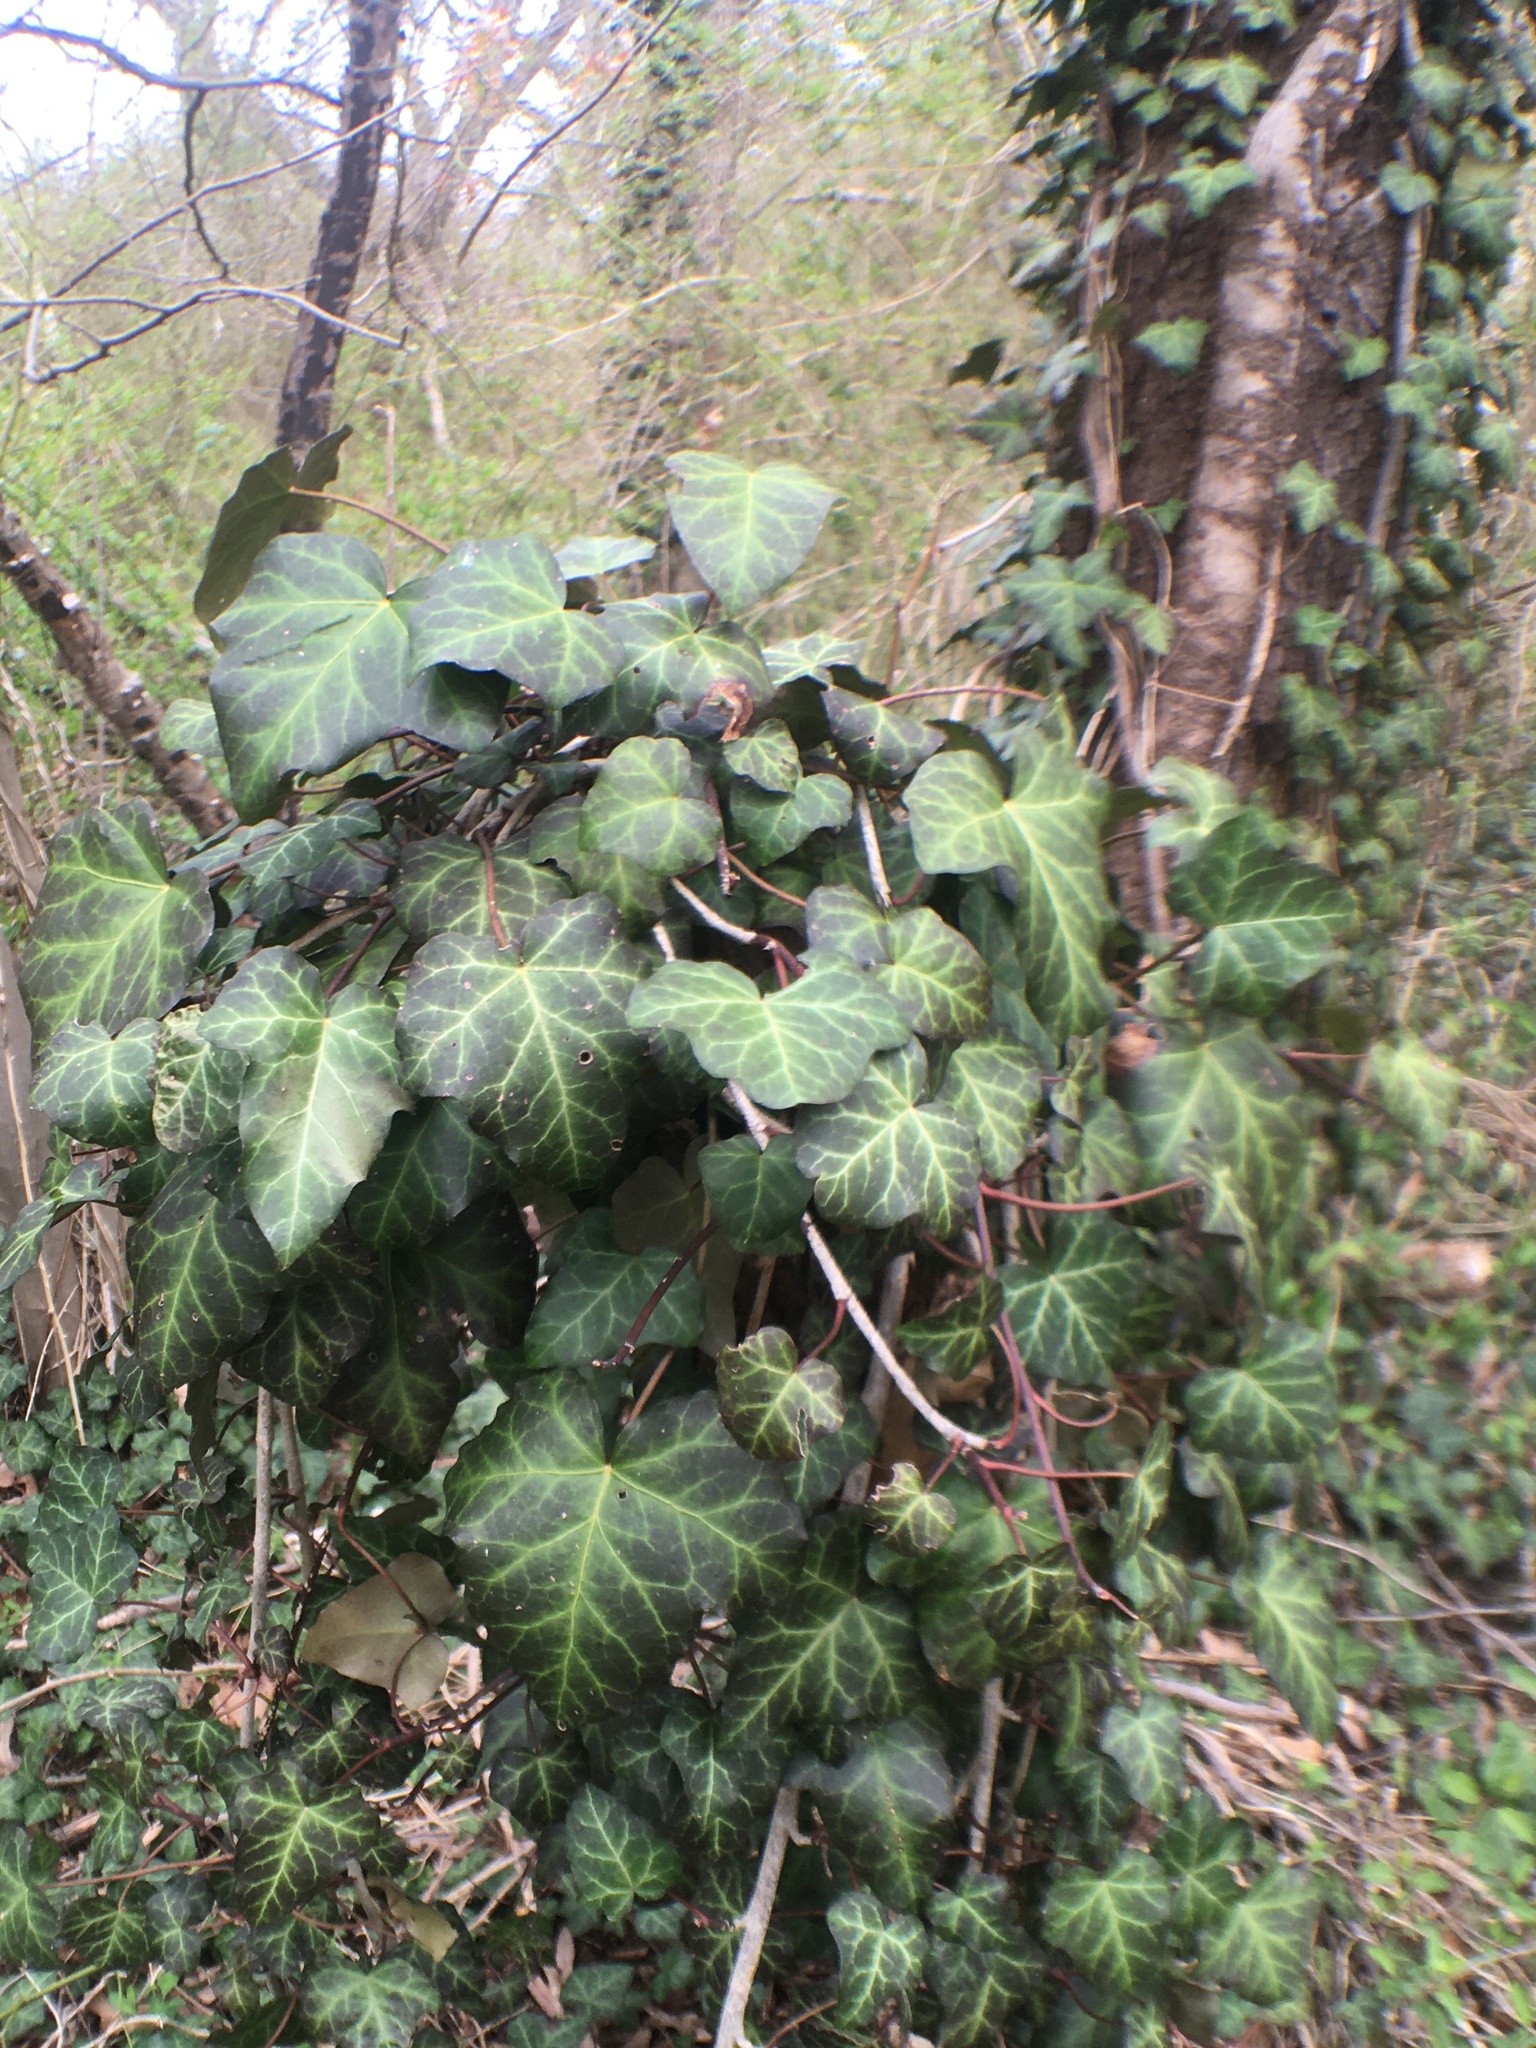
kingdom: Plantae
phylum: Tracheophyta
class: Magnoliopsida
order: Apiales
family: Araliaceae
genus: Hedera
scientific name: Hedera helix
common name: Ivy
